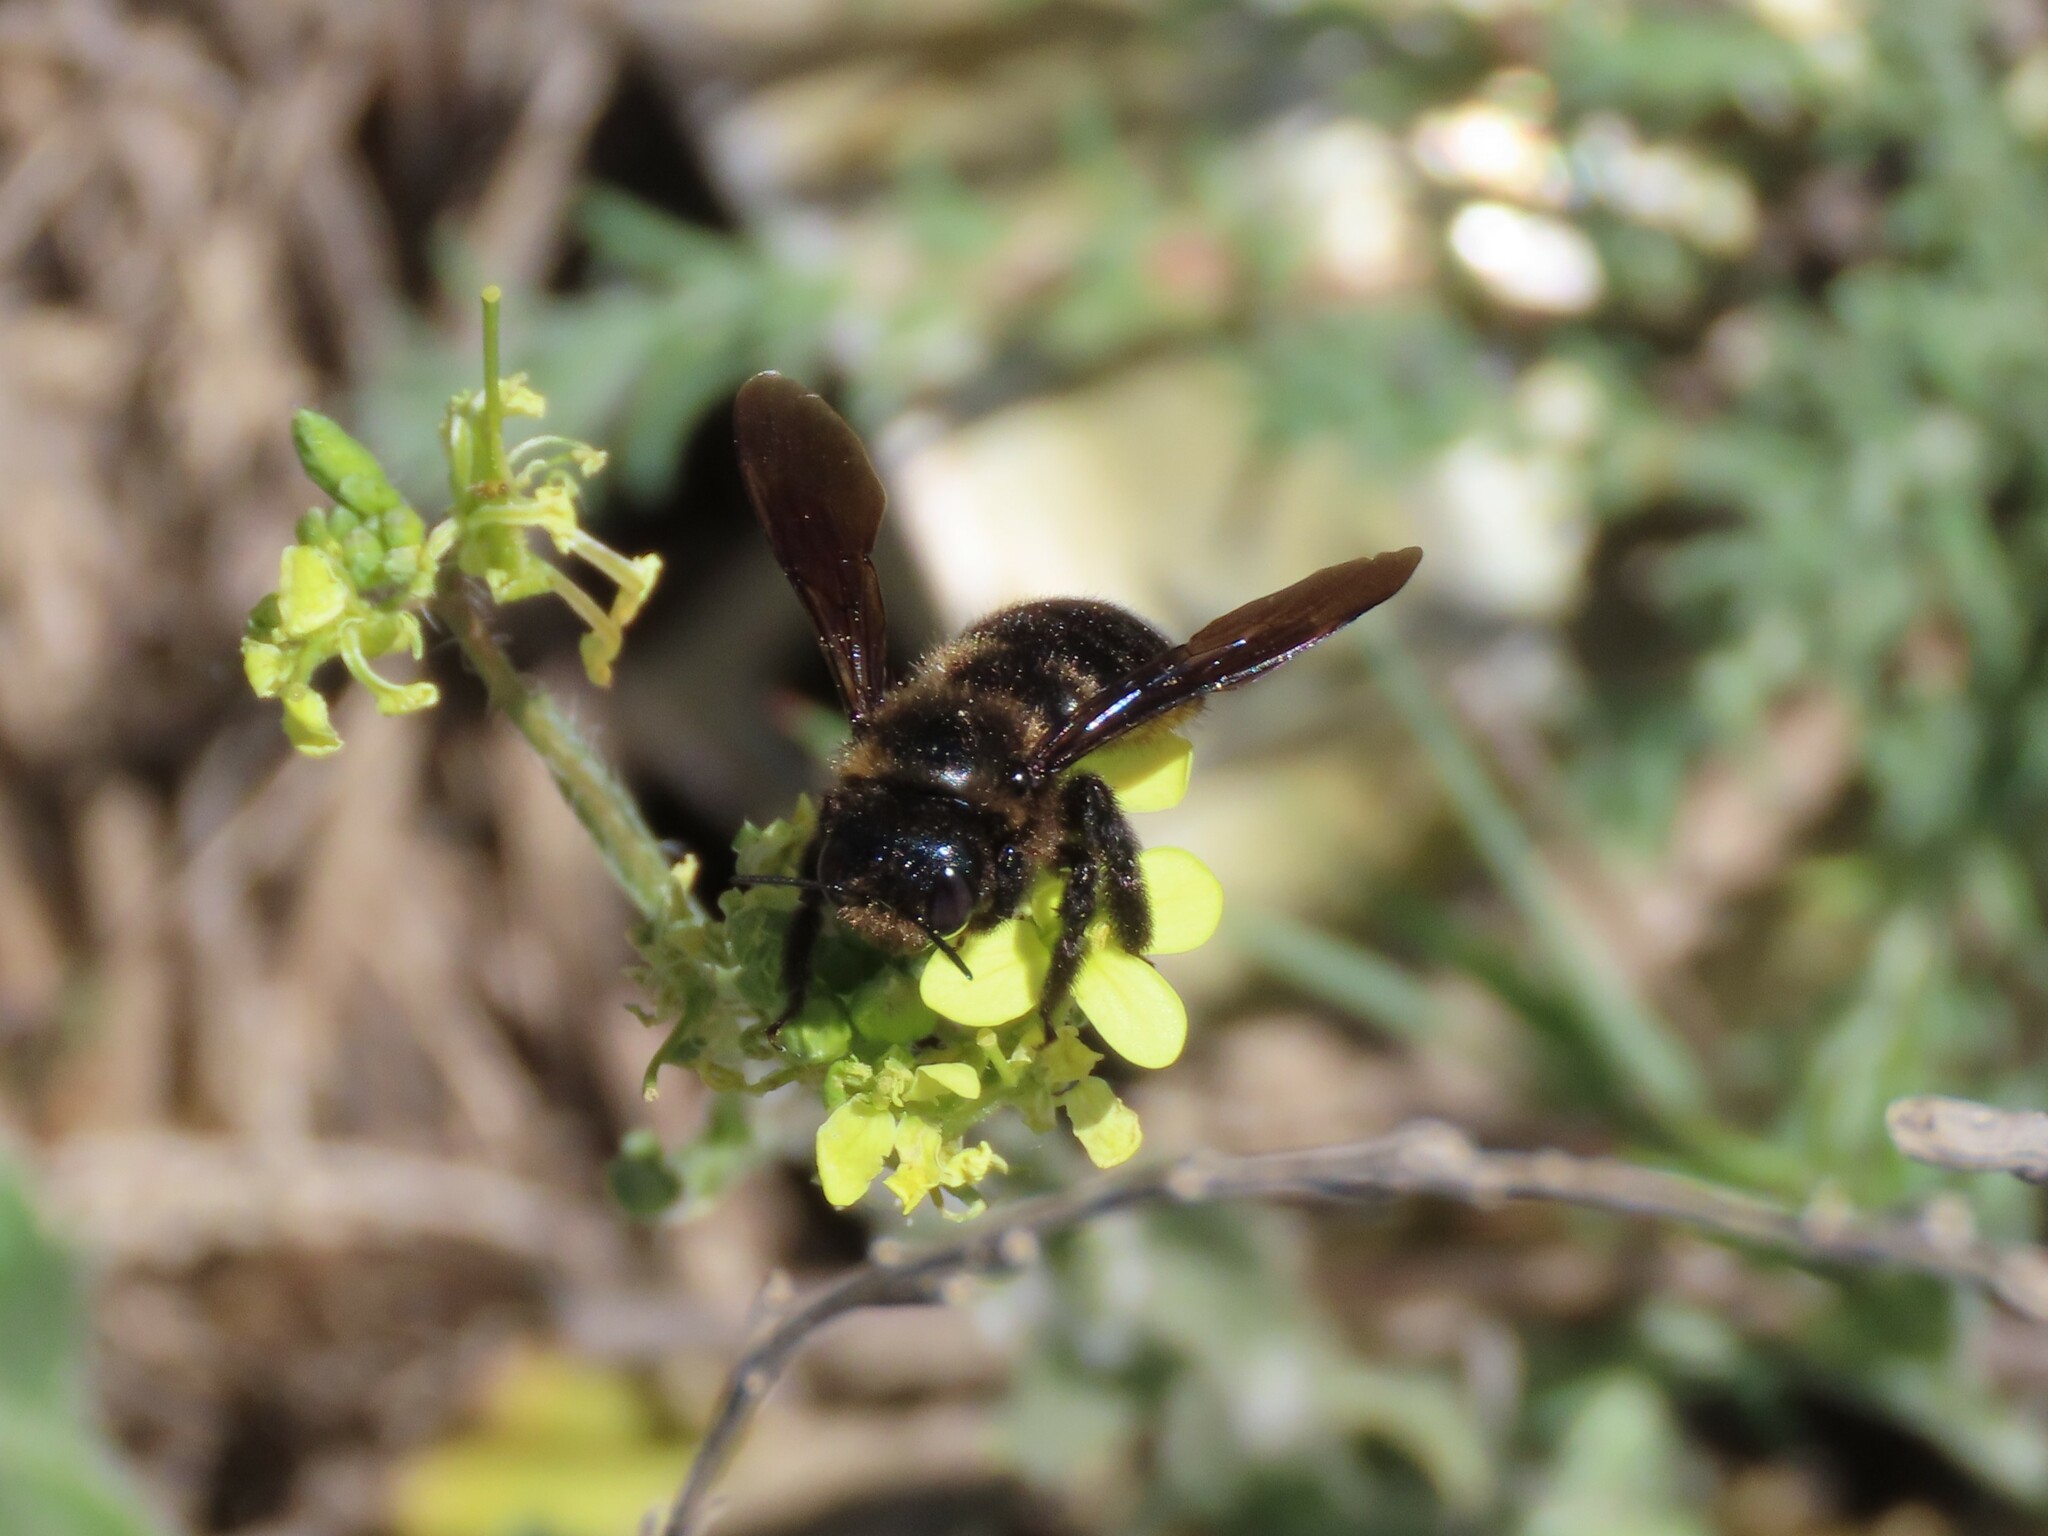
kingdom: Animalia
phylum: Arthropoda
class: Insecta
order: Hymenoptera
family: Apidae
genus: Xylocopa
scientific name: Xylocopa iris
